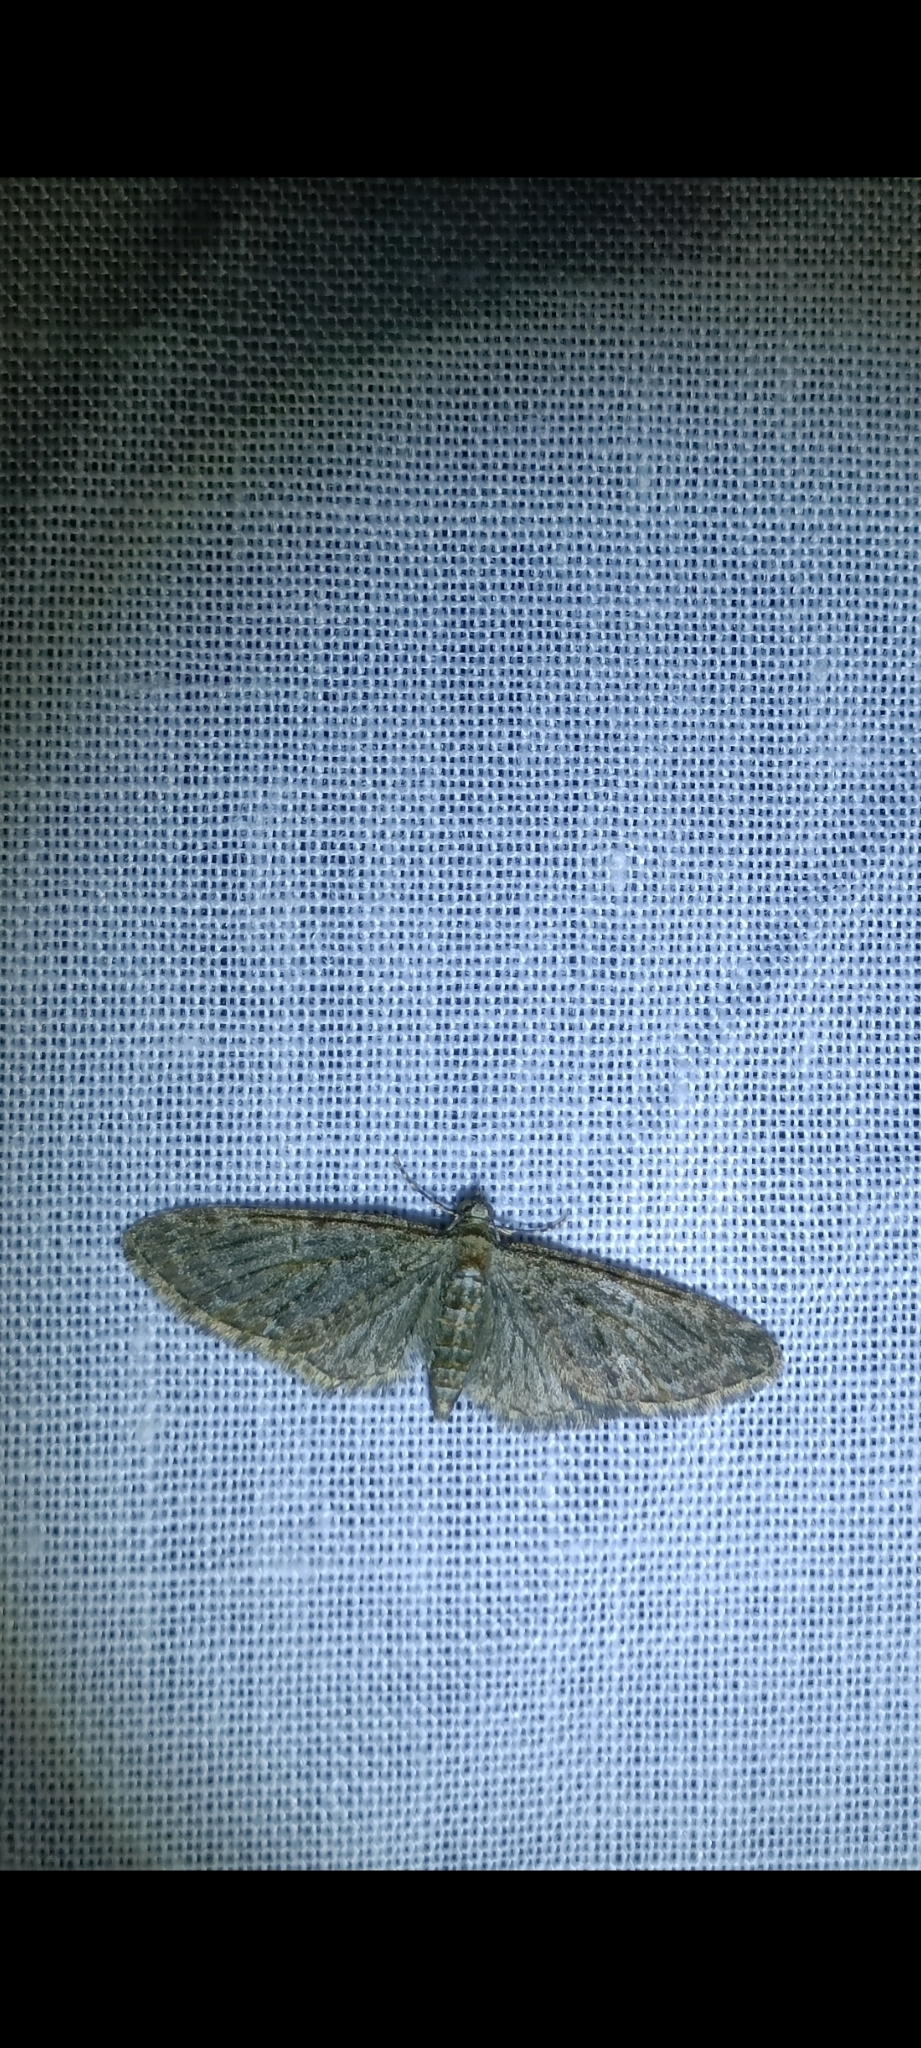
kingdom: Animalia
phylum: Arthropoda
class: Insecta
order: Lepidoptera
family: Geometridae
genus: Eupithecia
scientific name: Eupithecia abbreviata
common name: Brindled pug
